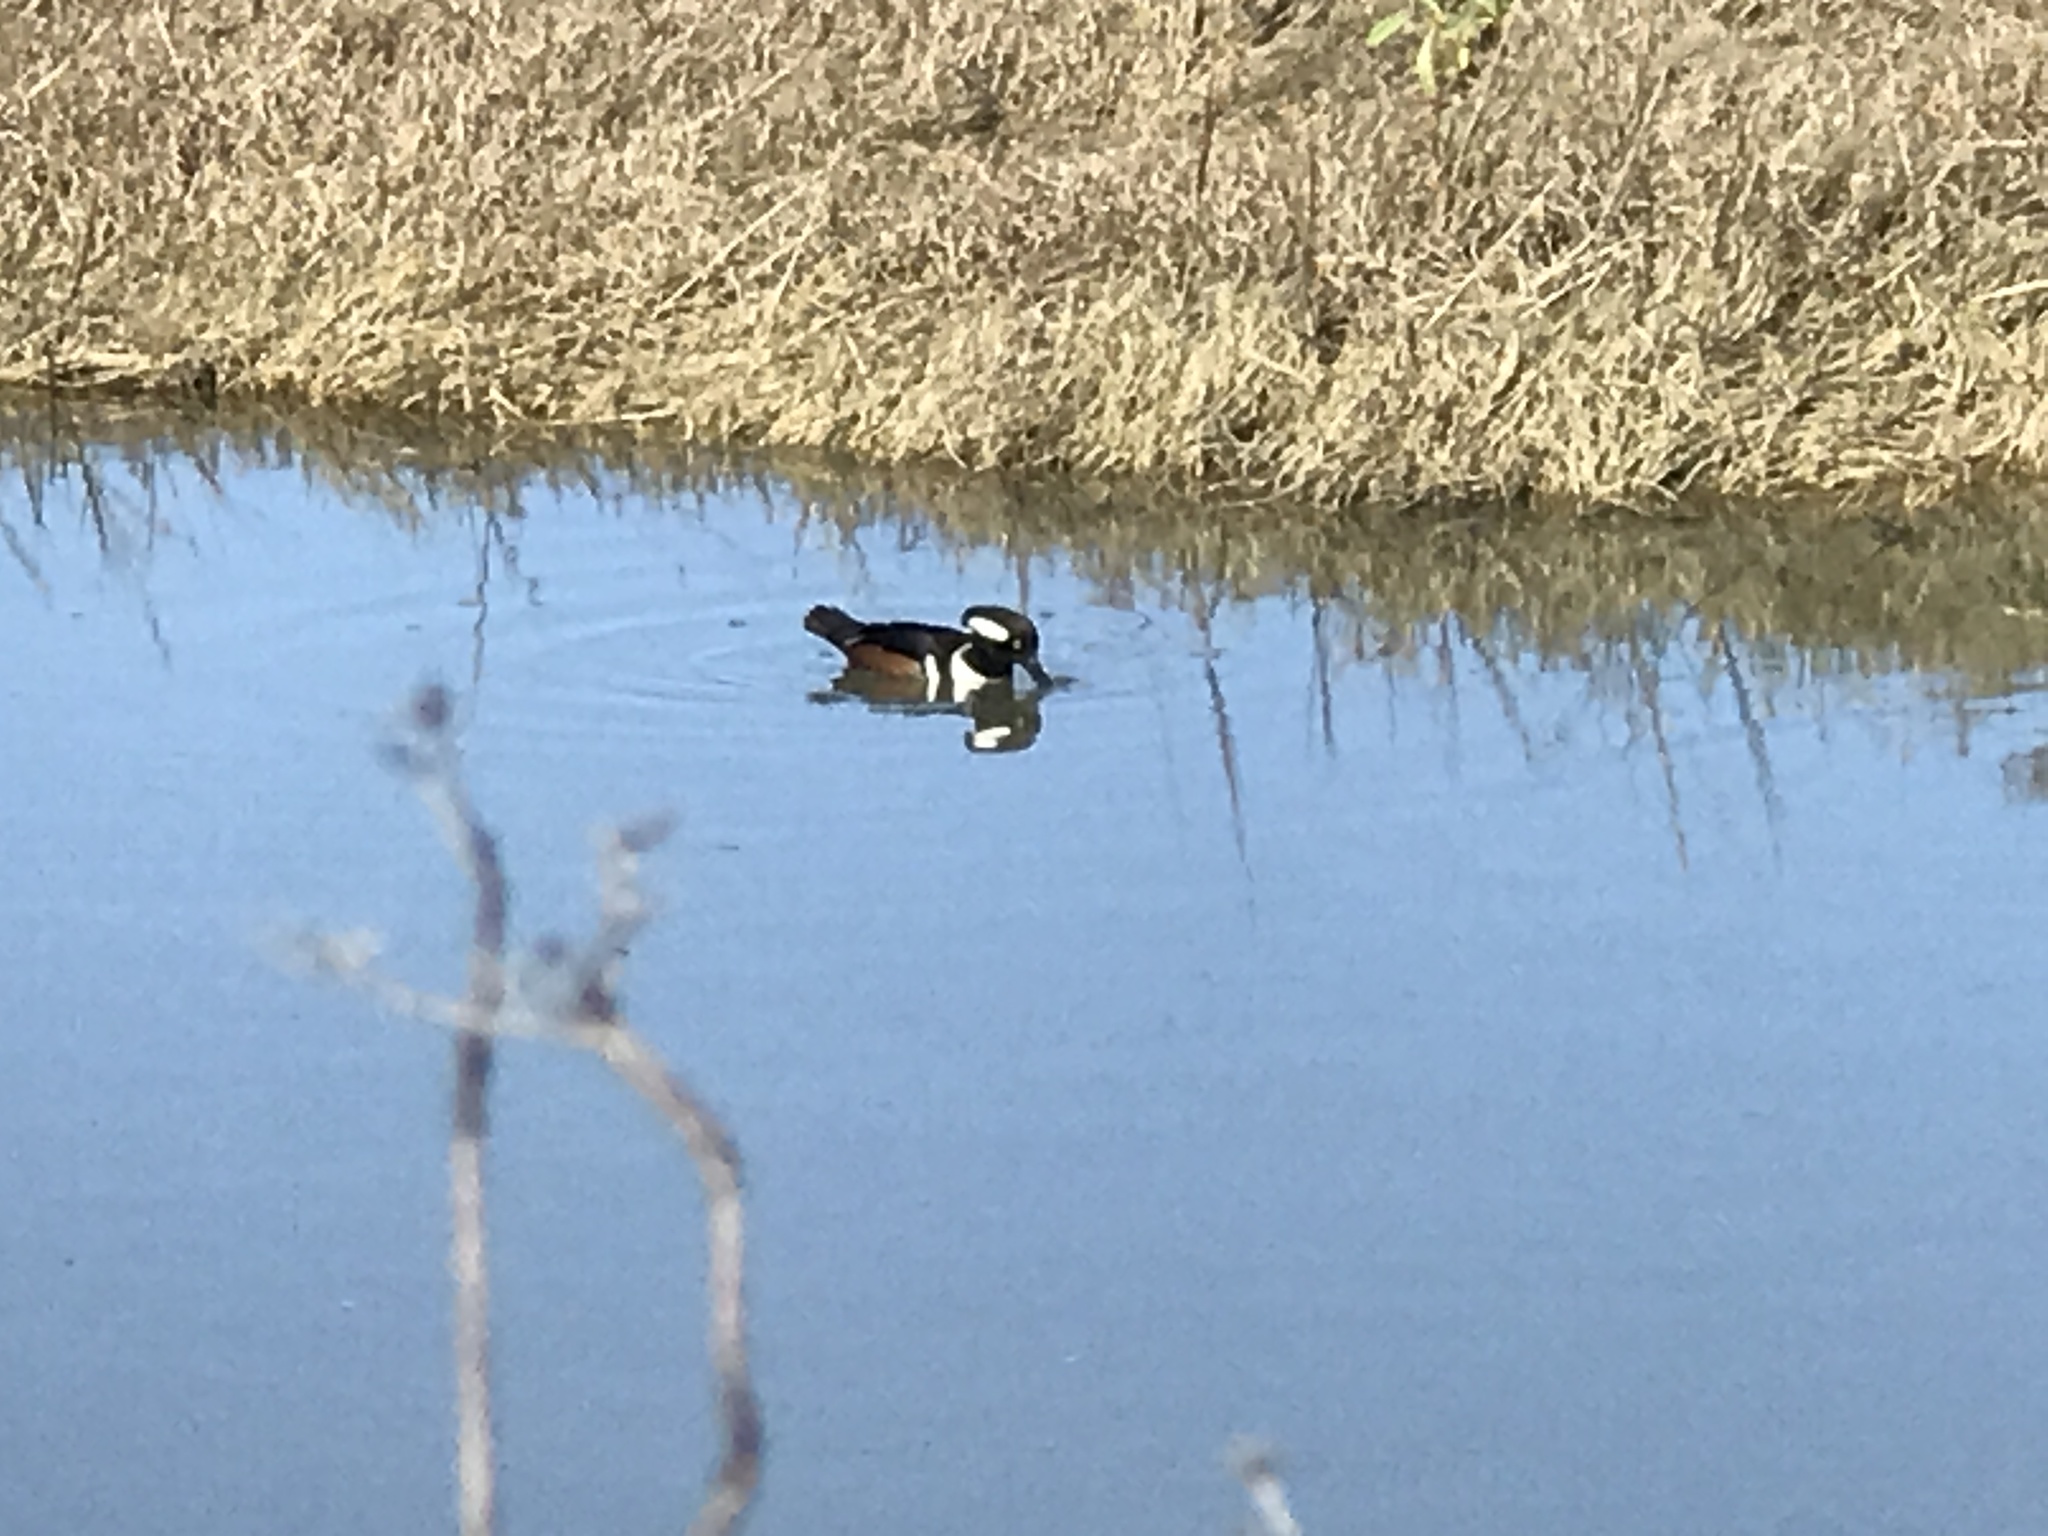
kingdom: Animalia
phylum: Chordata
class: Aves
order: Anseriformes
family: Anatidae
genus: Lophodytes
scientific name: Lophodytes cucullatus
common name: Hooded merganser
